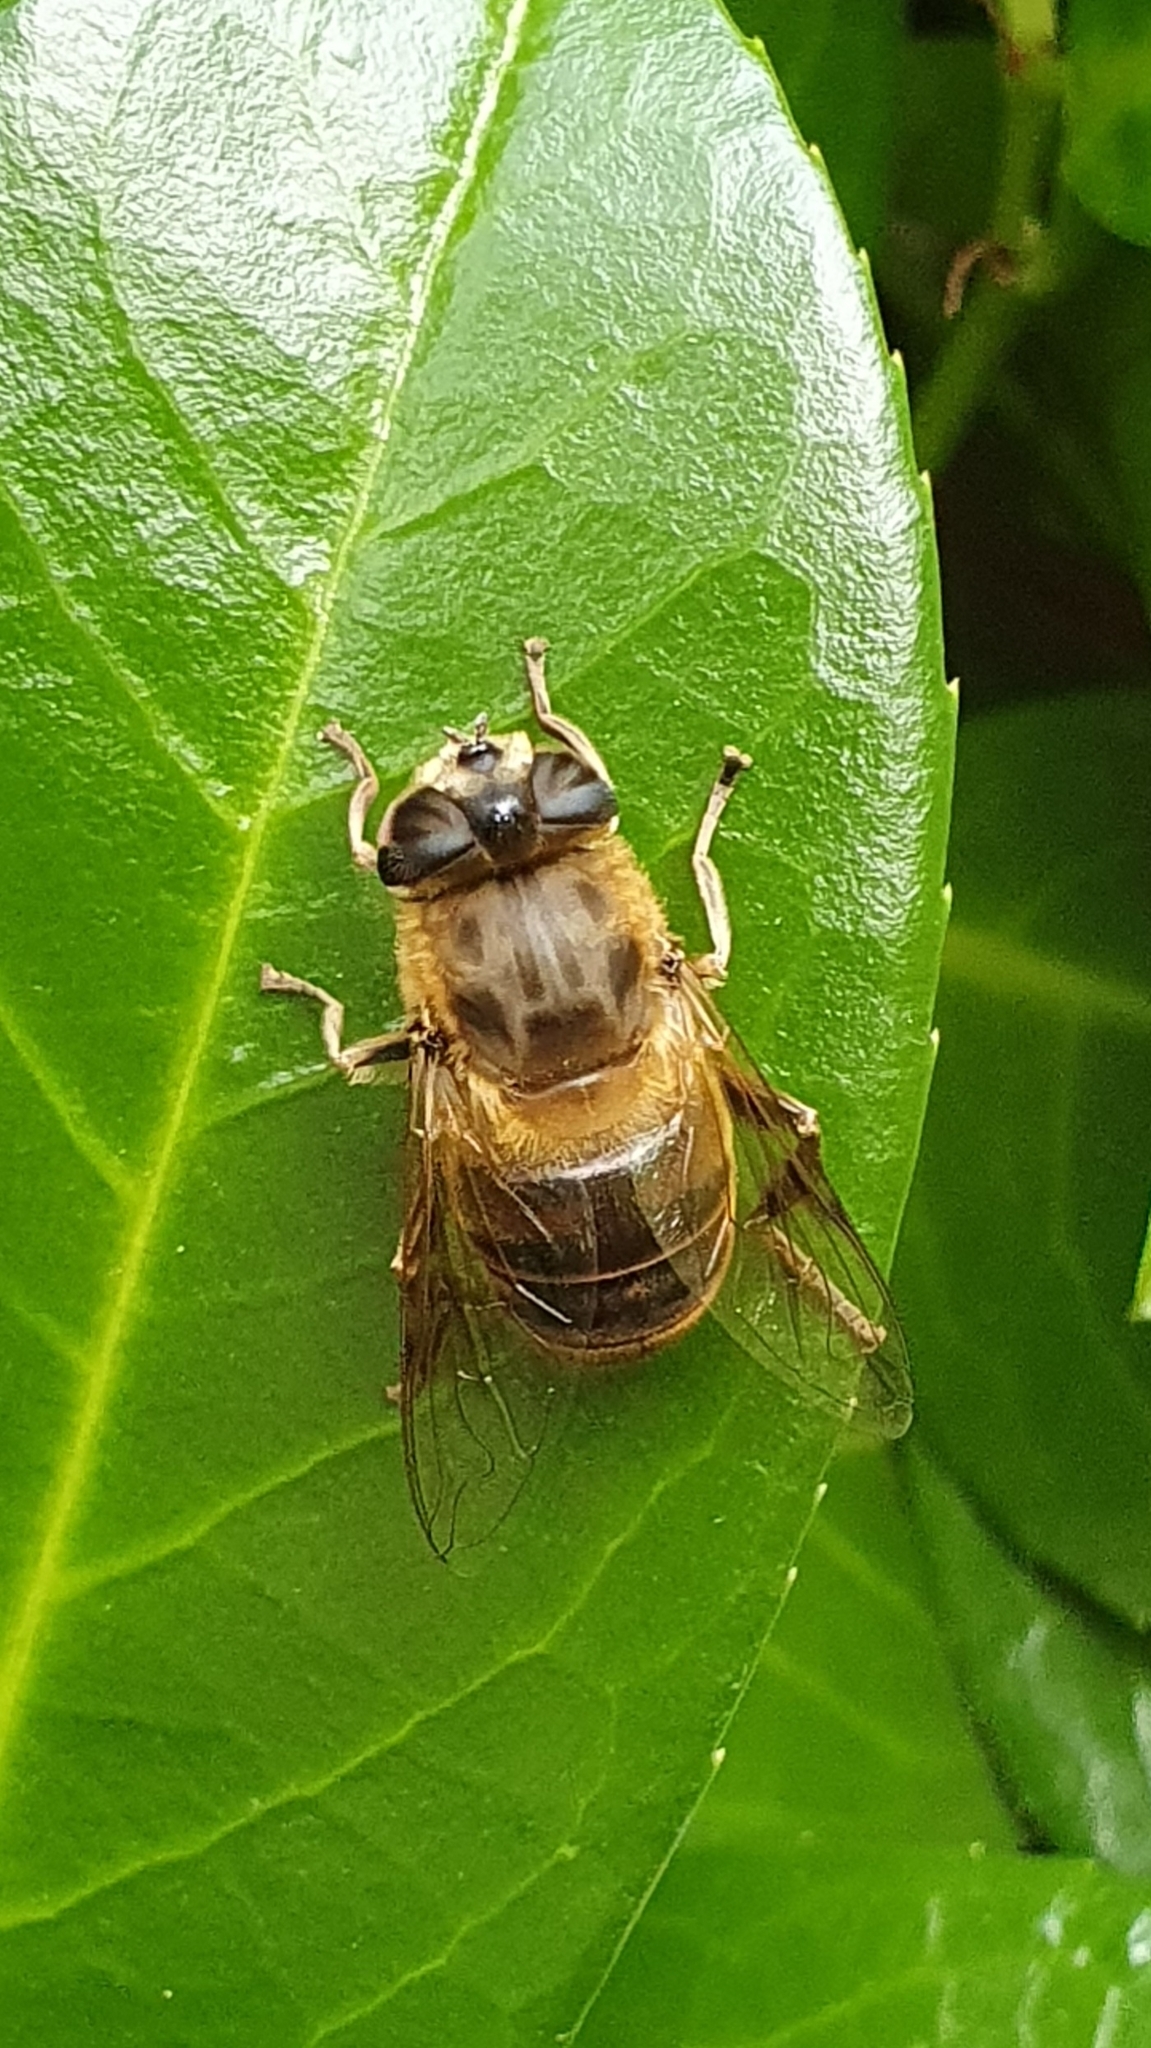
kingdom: Animalia
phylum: Arthropoda
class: Insecta
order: Diptera
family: Syrphidae
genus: Eristalis
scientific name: Eristalis tenax
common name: Drone fly
